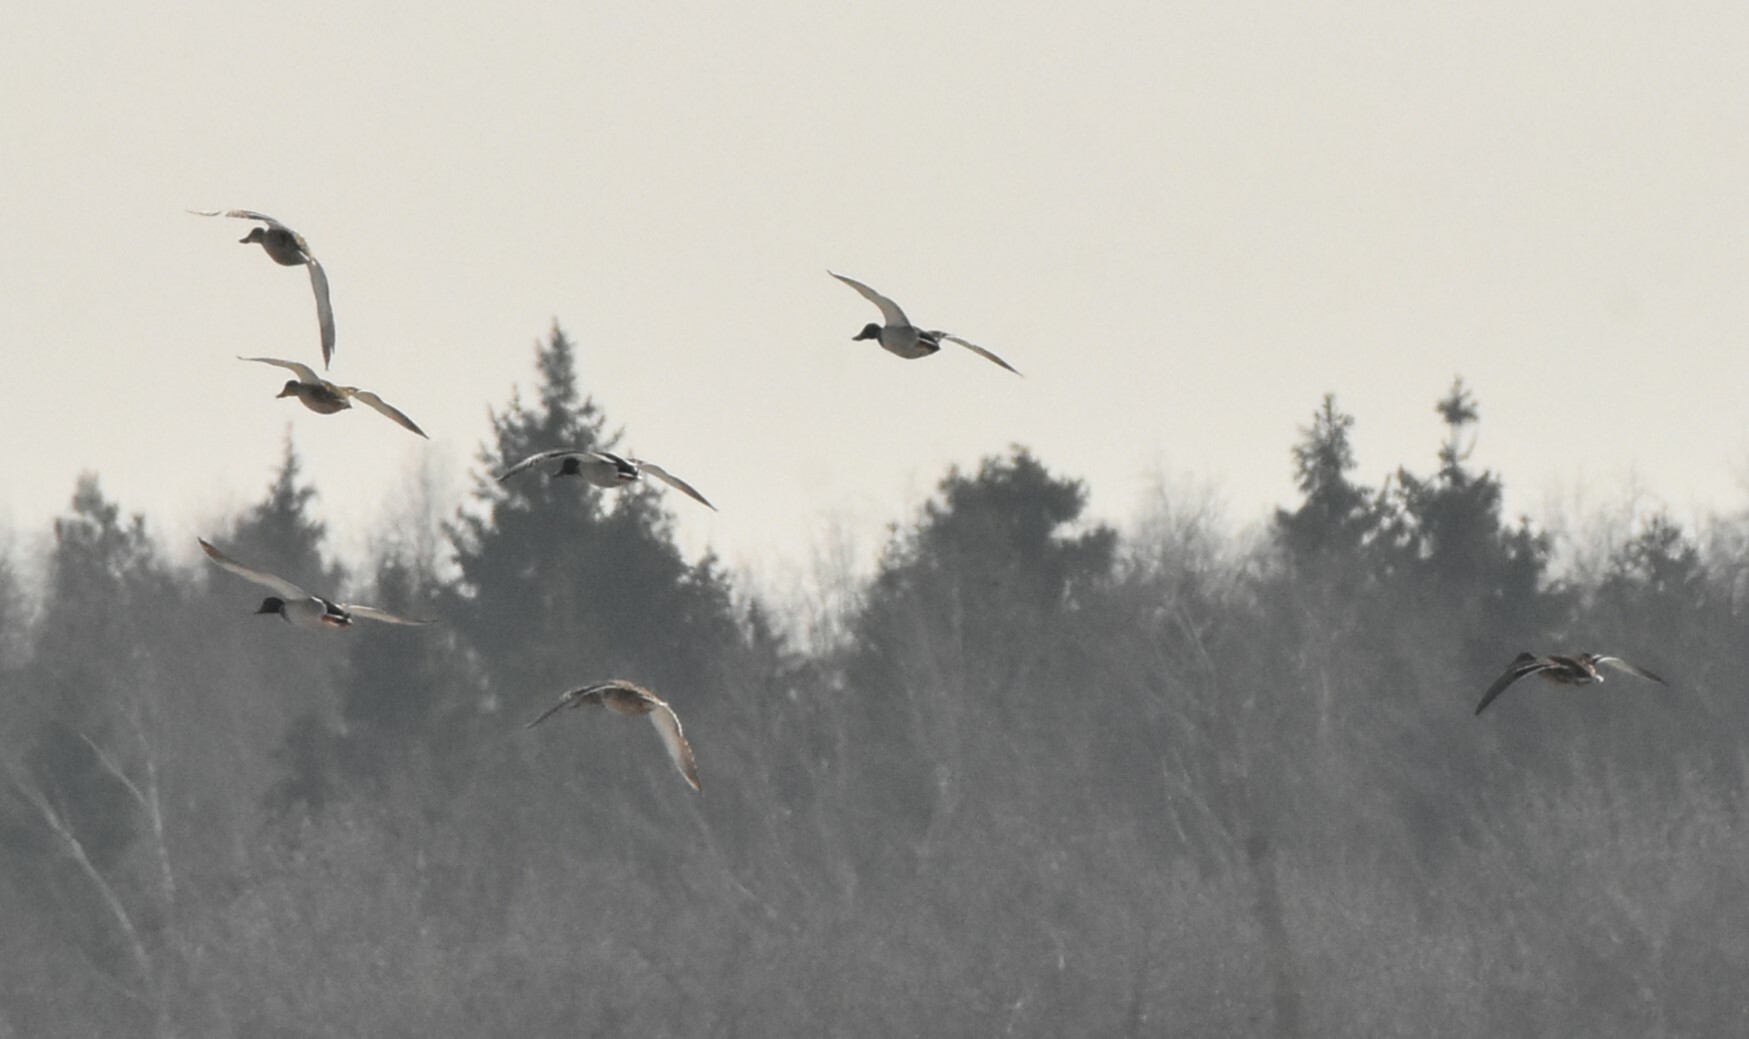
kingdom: Animalia
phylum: Chordata
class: Aves
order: Anseriformes
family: Anatidae
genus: Anas
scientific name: Anas platyrhynchos
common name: Mallard
